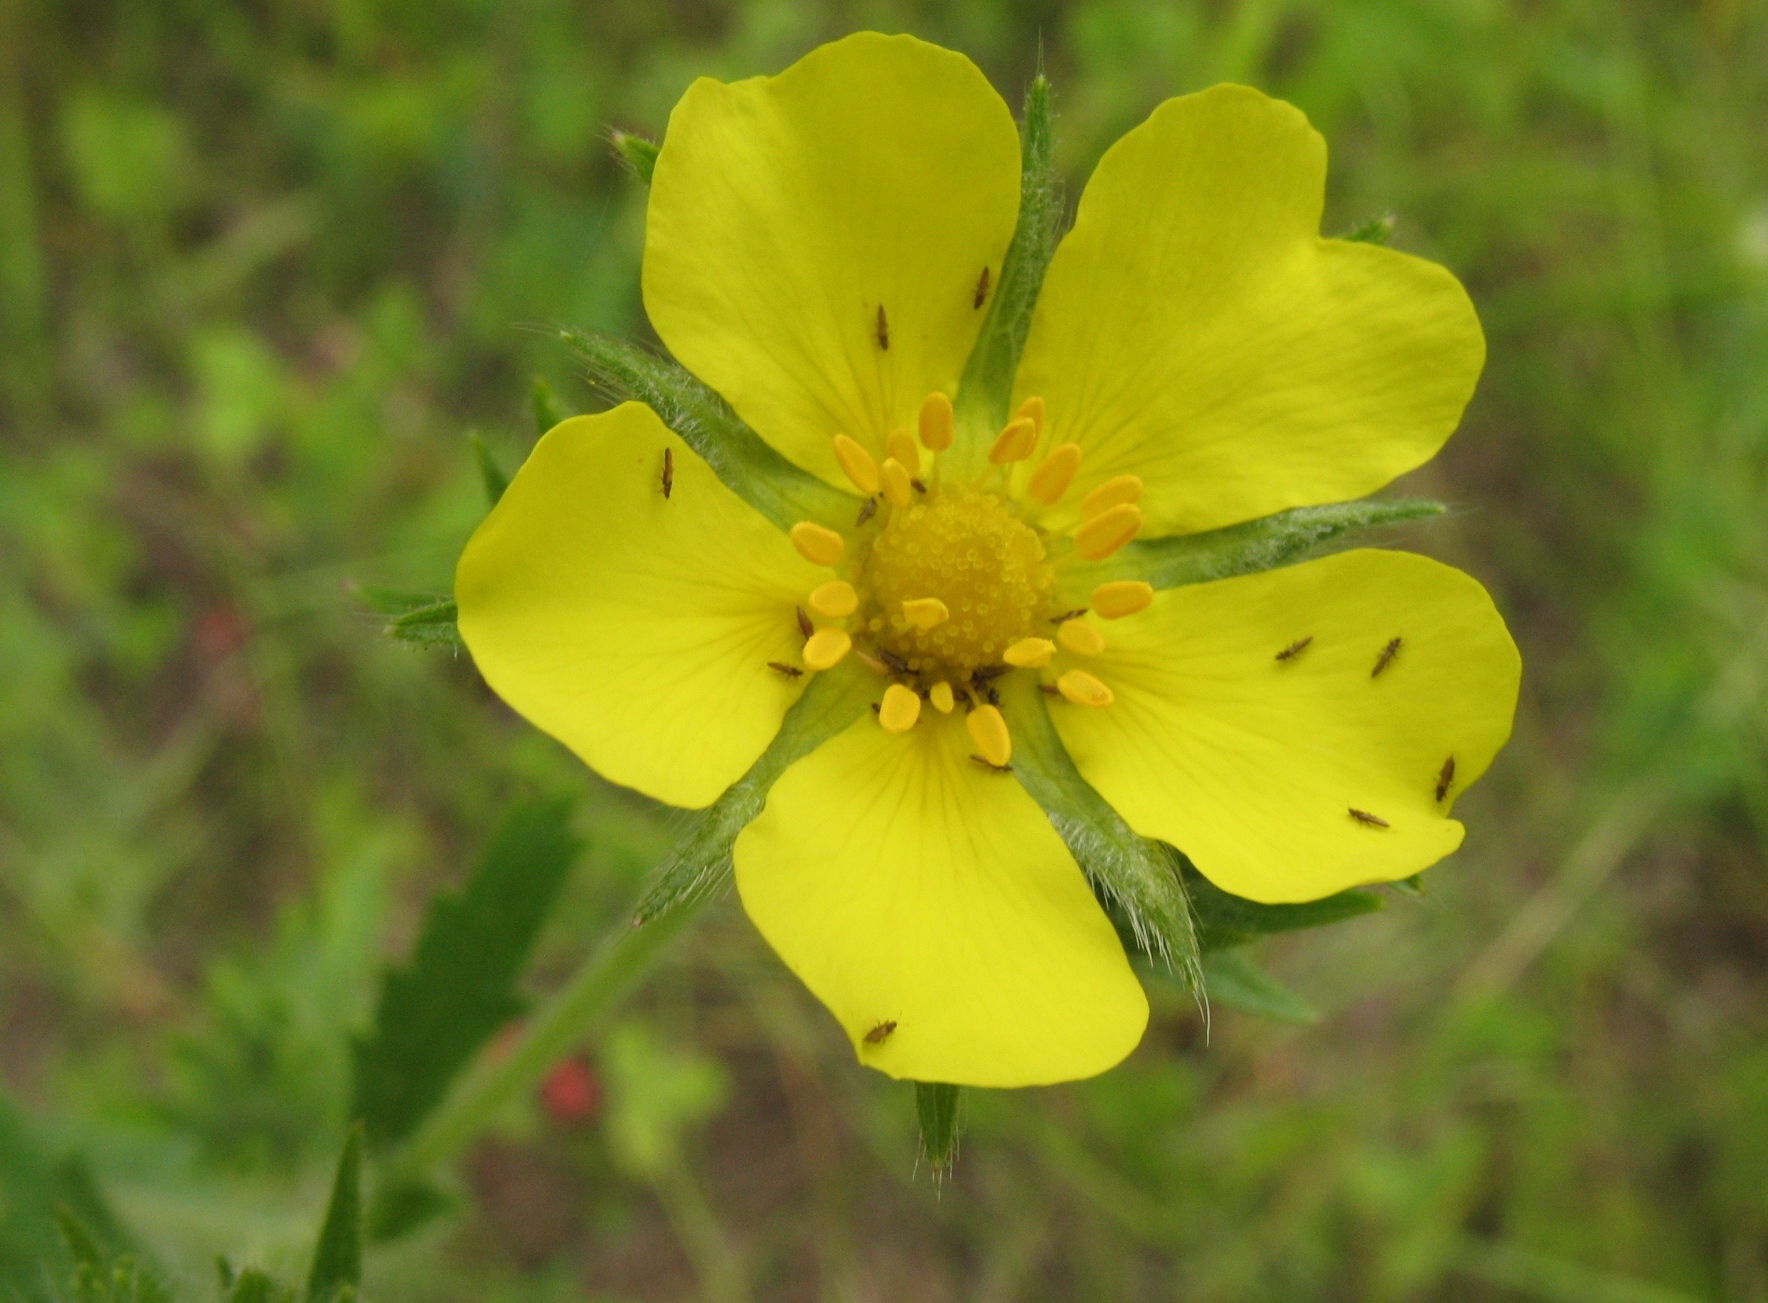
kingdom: Plantae
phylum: Tracheophyta
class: Magnoliopsida
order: Rosales
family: Rosaceae
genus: Potentilla
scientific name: Potentilla recta
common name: Sulphur cinquefoil
